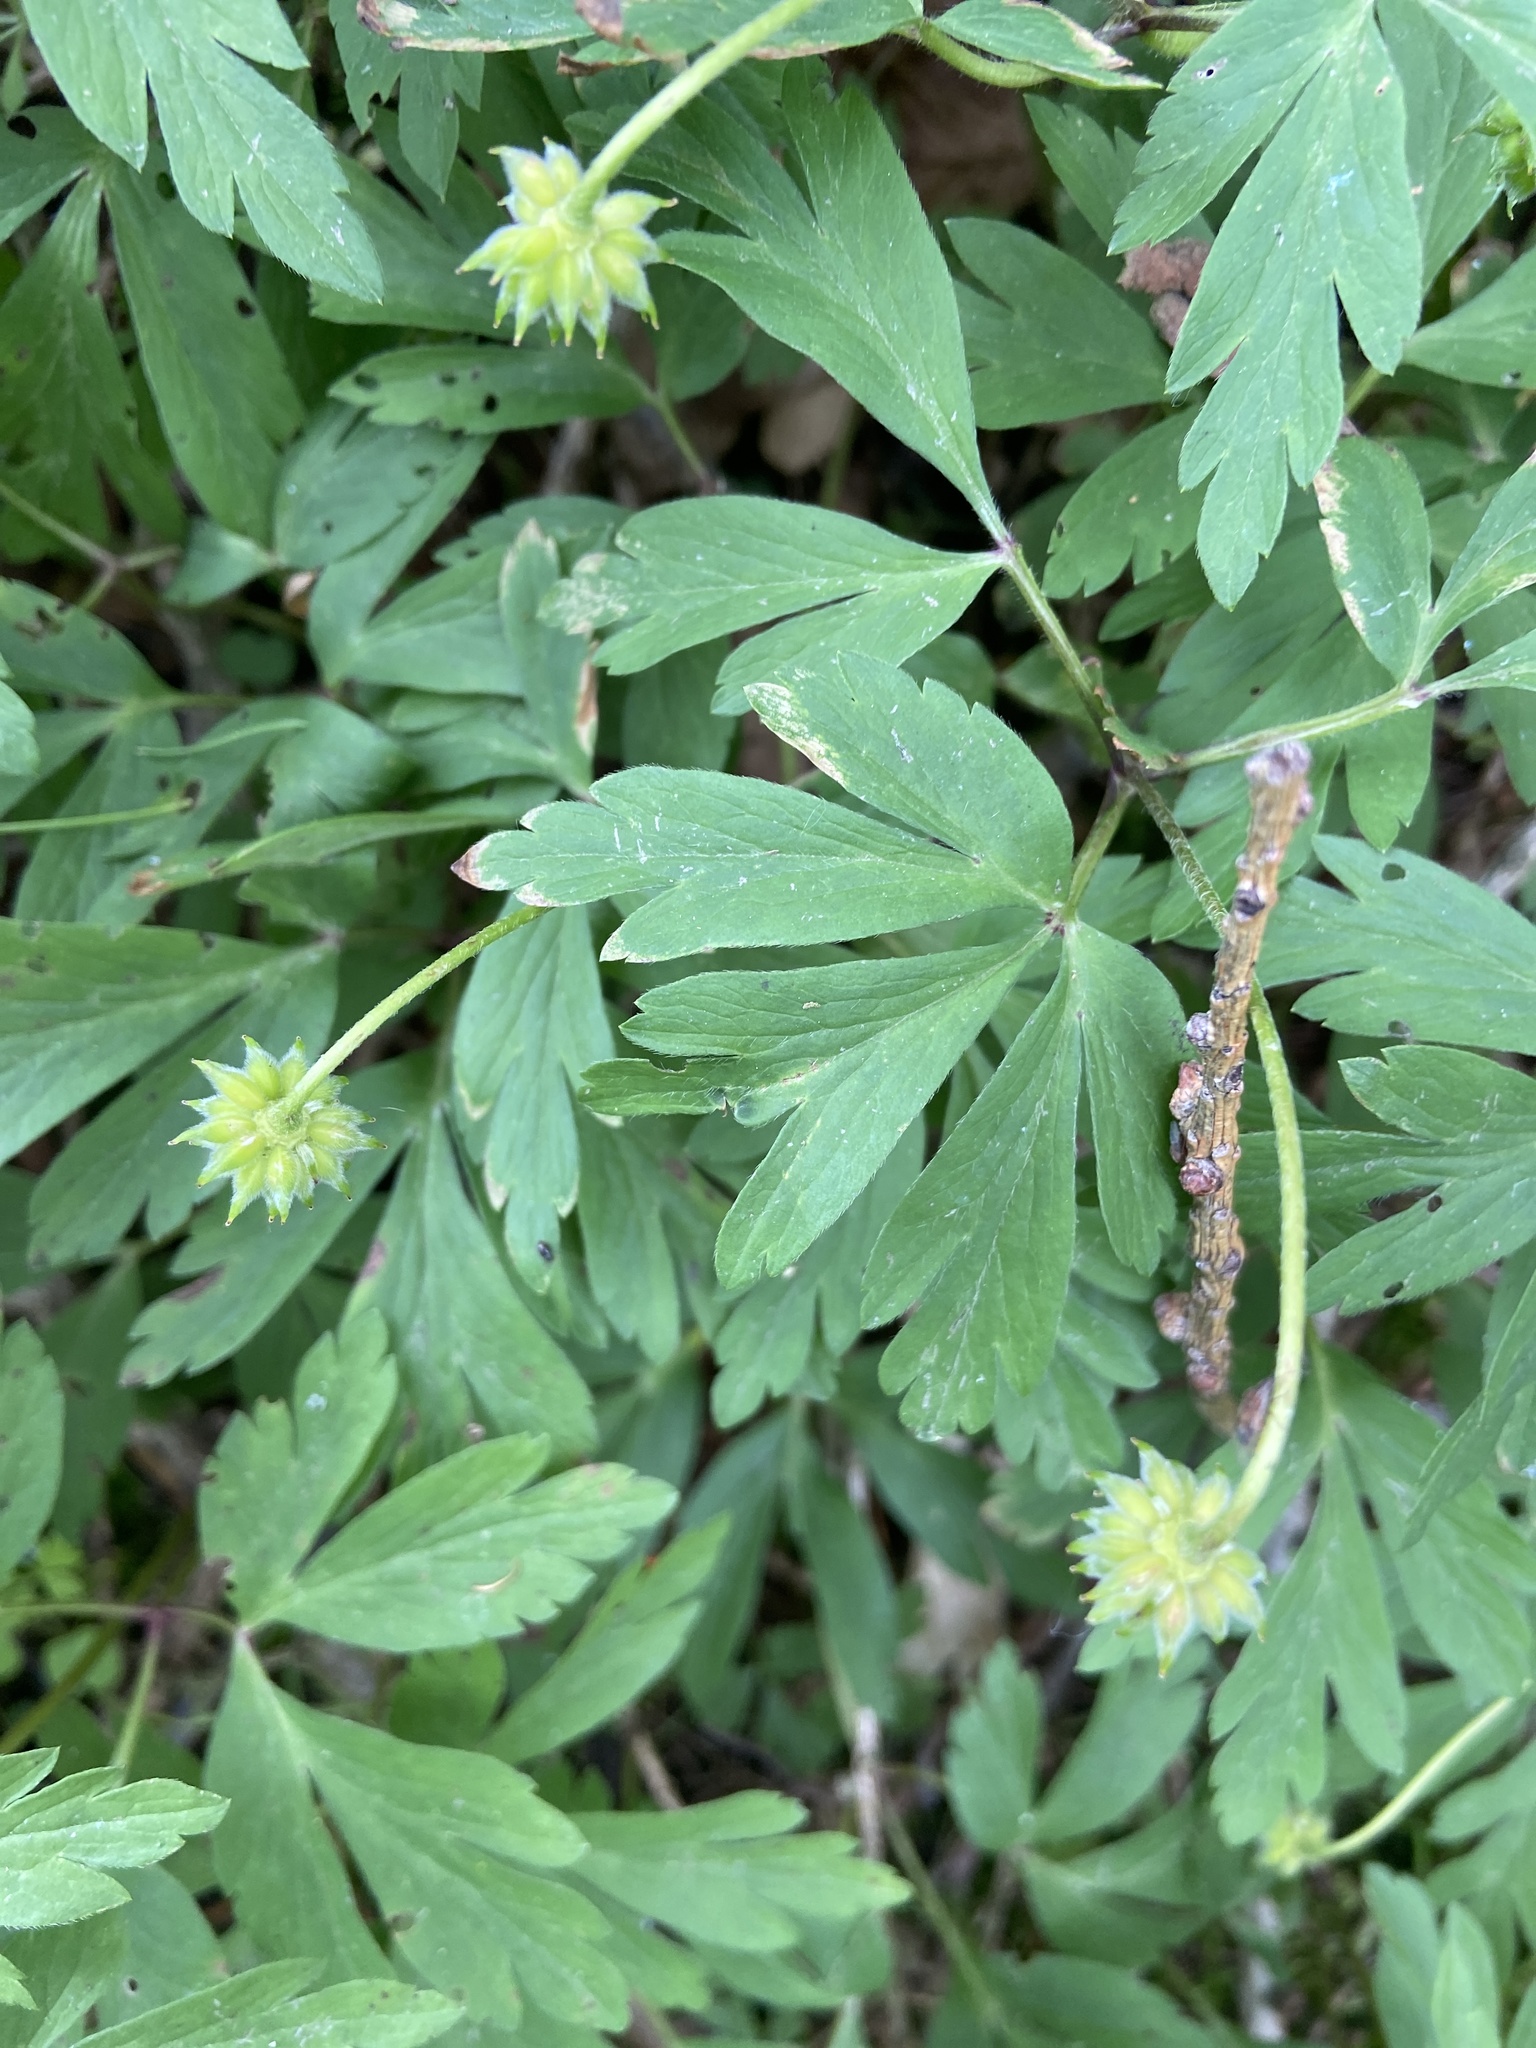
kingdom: Plantae
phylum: Tracheophyta
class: Magnoliopsida
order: Ranunculales
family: Ranunculaceae
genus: Anemone
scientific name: Anemone nemorosa
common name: Wood anemone
